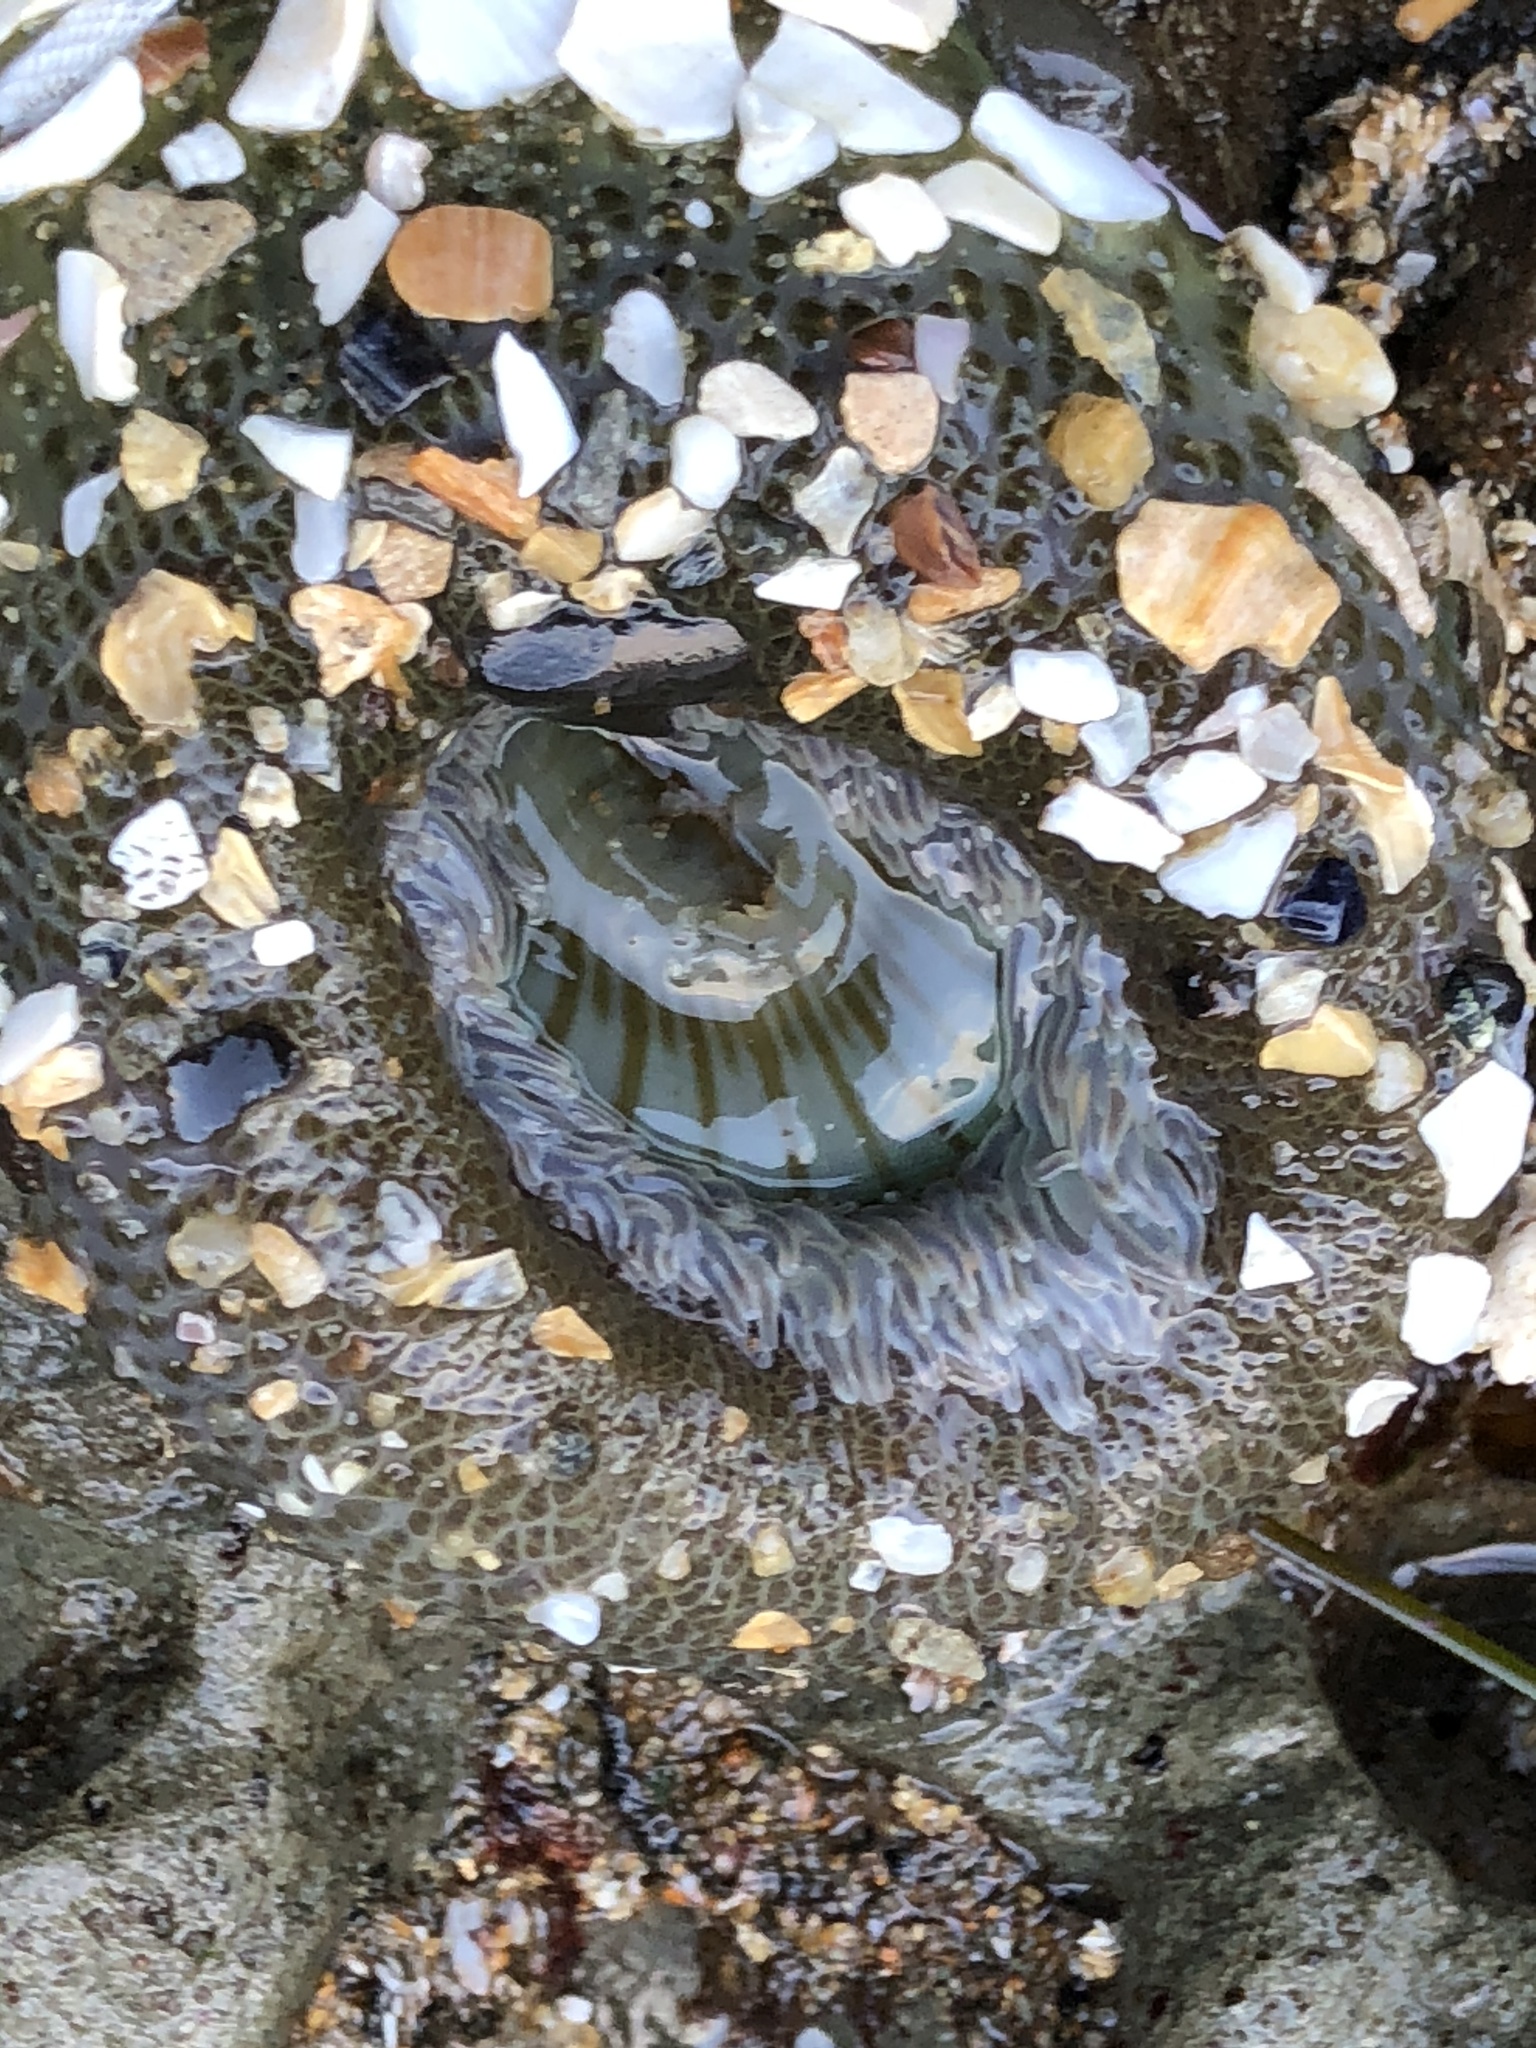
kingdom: Animalia
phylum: Cnidaria
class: Anthozoa
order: Actiniaria
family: Actiniidae
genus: Anthopleura
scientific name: Anthopleura sola
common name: Sun anemone
